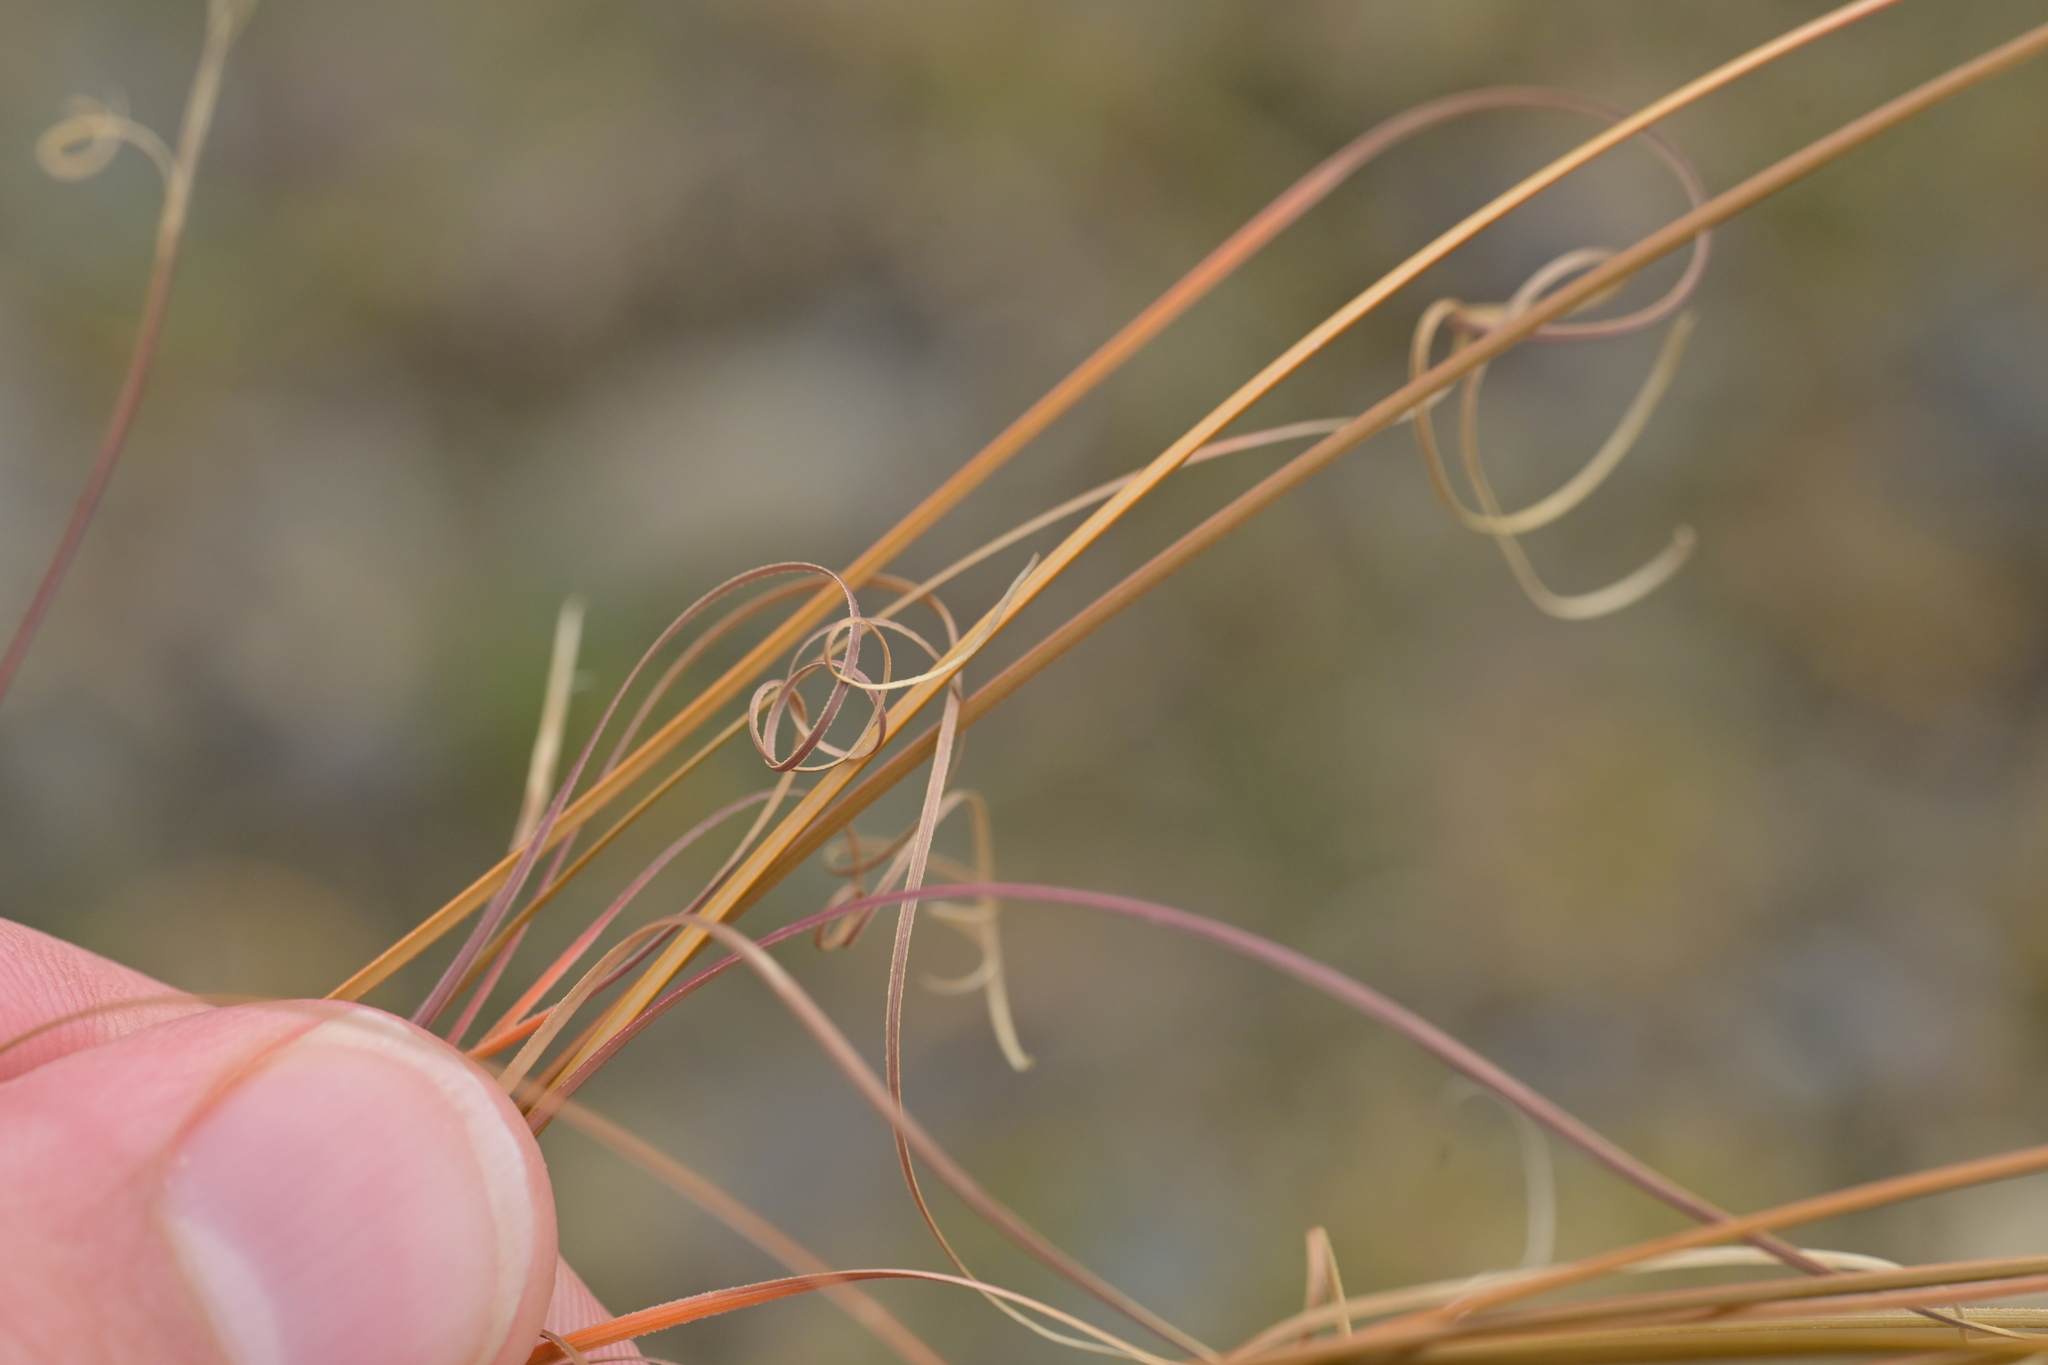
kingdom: Plantae
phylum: Tracheophyta
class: Liliopsida
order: Poales
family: Cyperaceae
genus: Carex
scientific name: Carex buchananii
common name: Leatherleaf sedge
